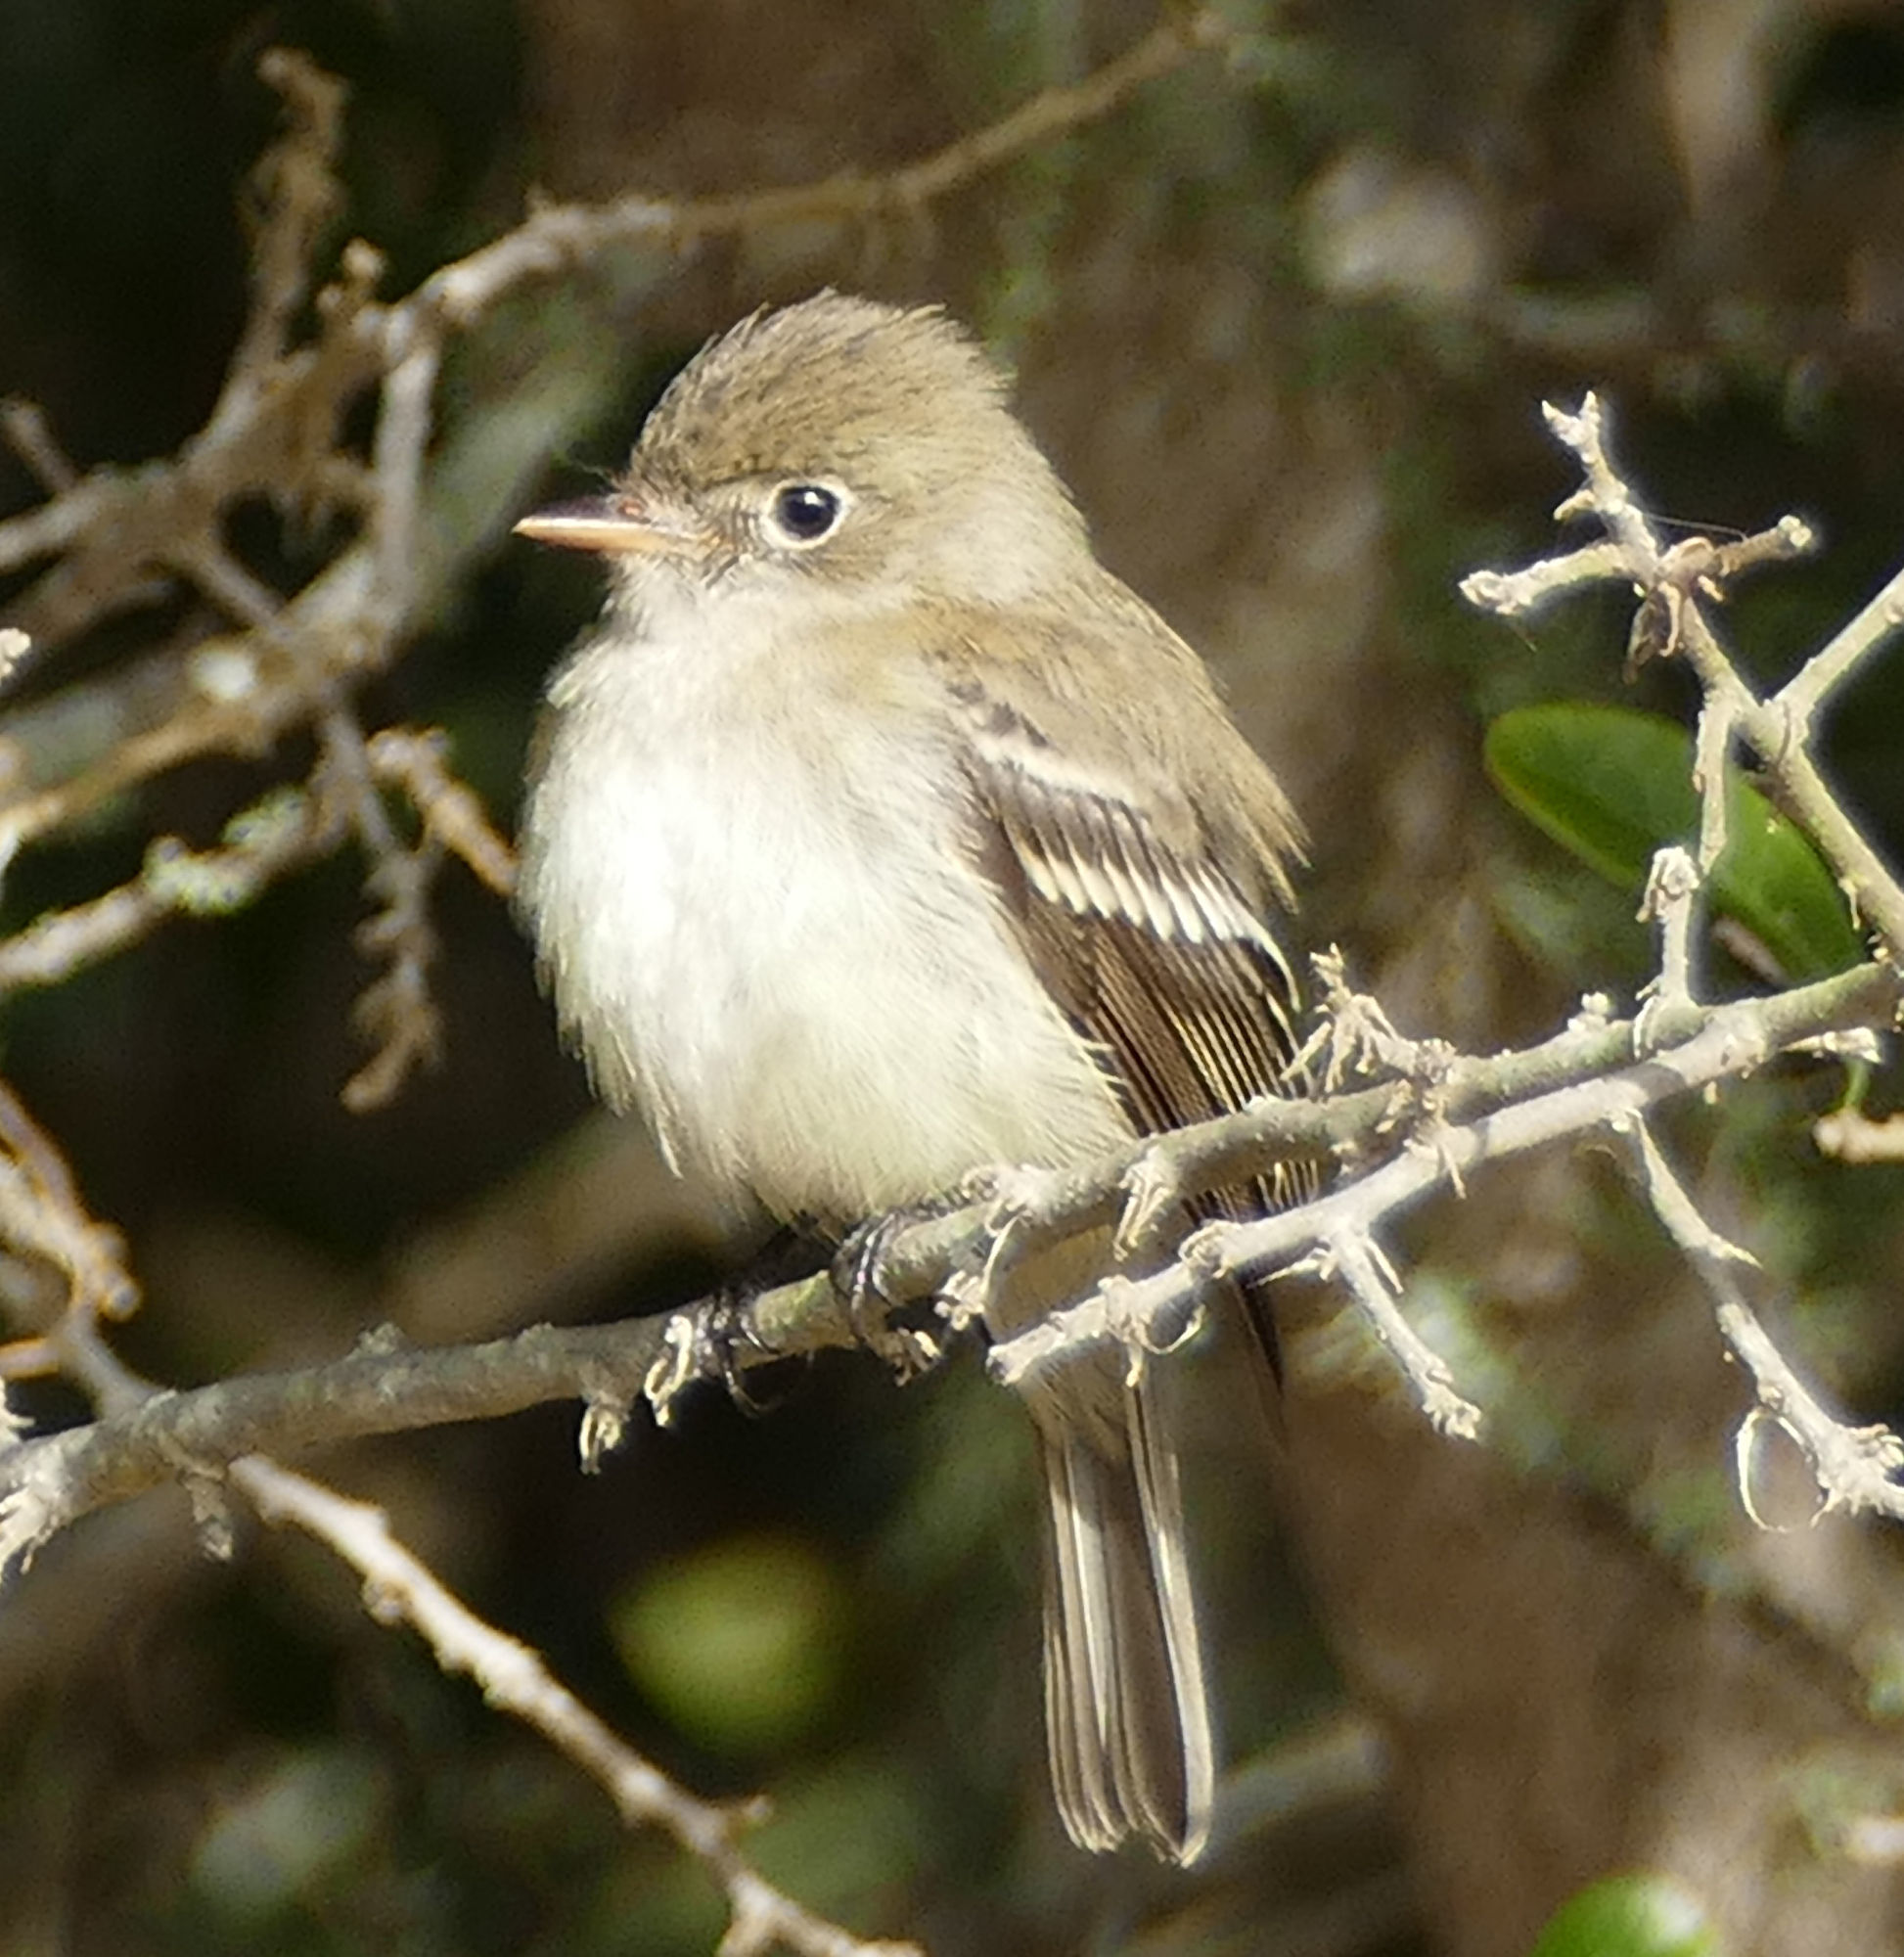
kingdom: Animalia
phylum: Chordata
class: Aves
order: Passeriformes
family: Tyrannidae
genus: Empidonax
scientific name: Empidonax minimus
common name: Least flycatcher
